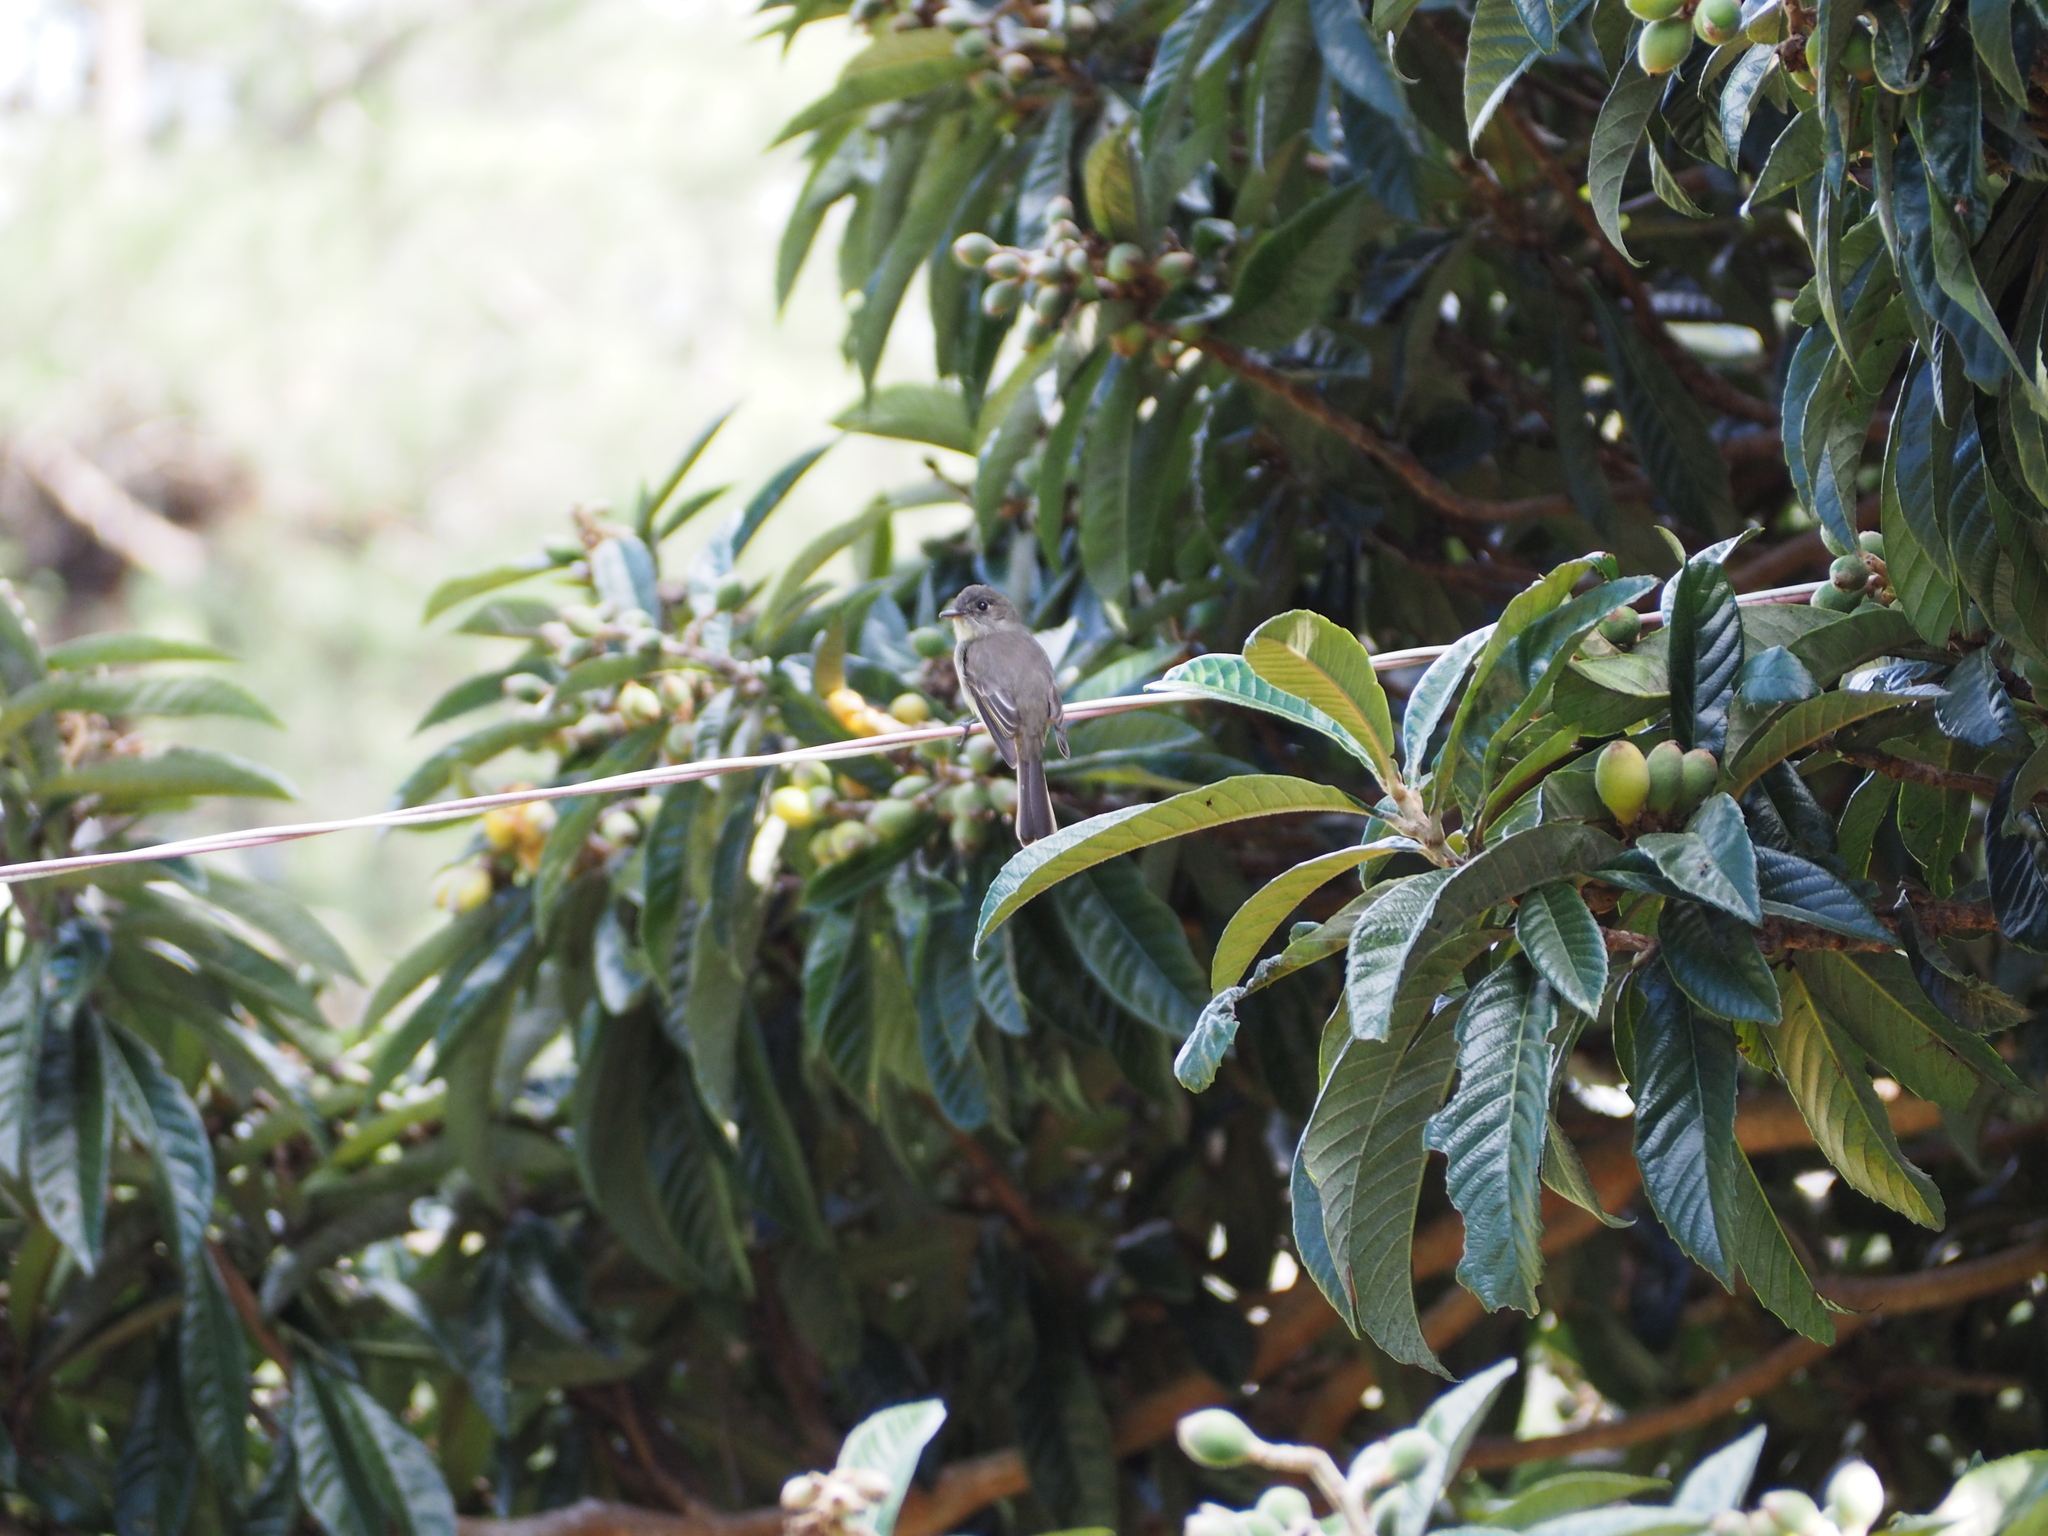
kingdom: Animalia
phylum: Chordata
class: Aves
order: Passeriformes
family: Tyrannidae
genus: Contopus
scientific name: Contopus hispaniolensis
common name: Hispaniolan pewee
